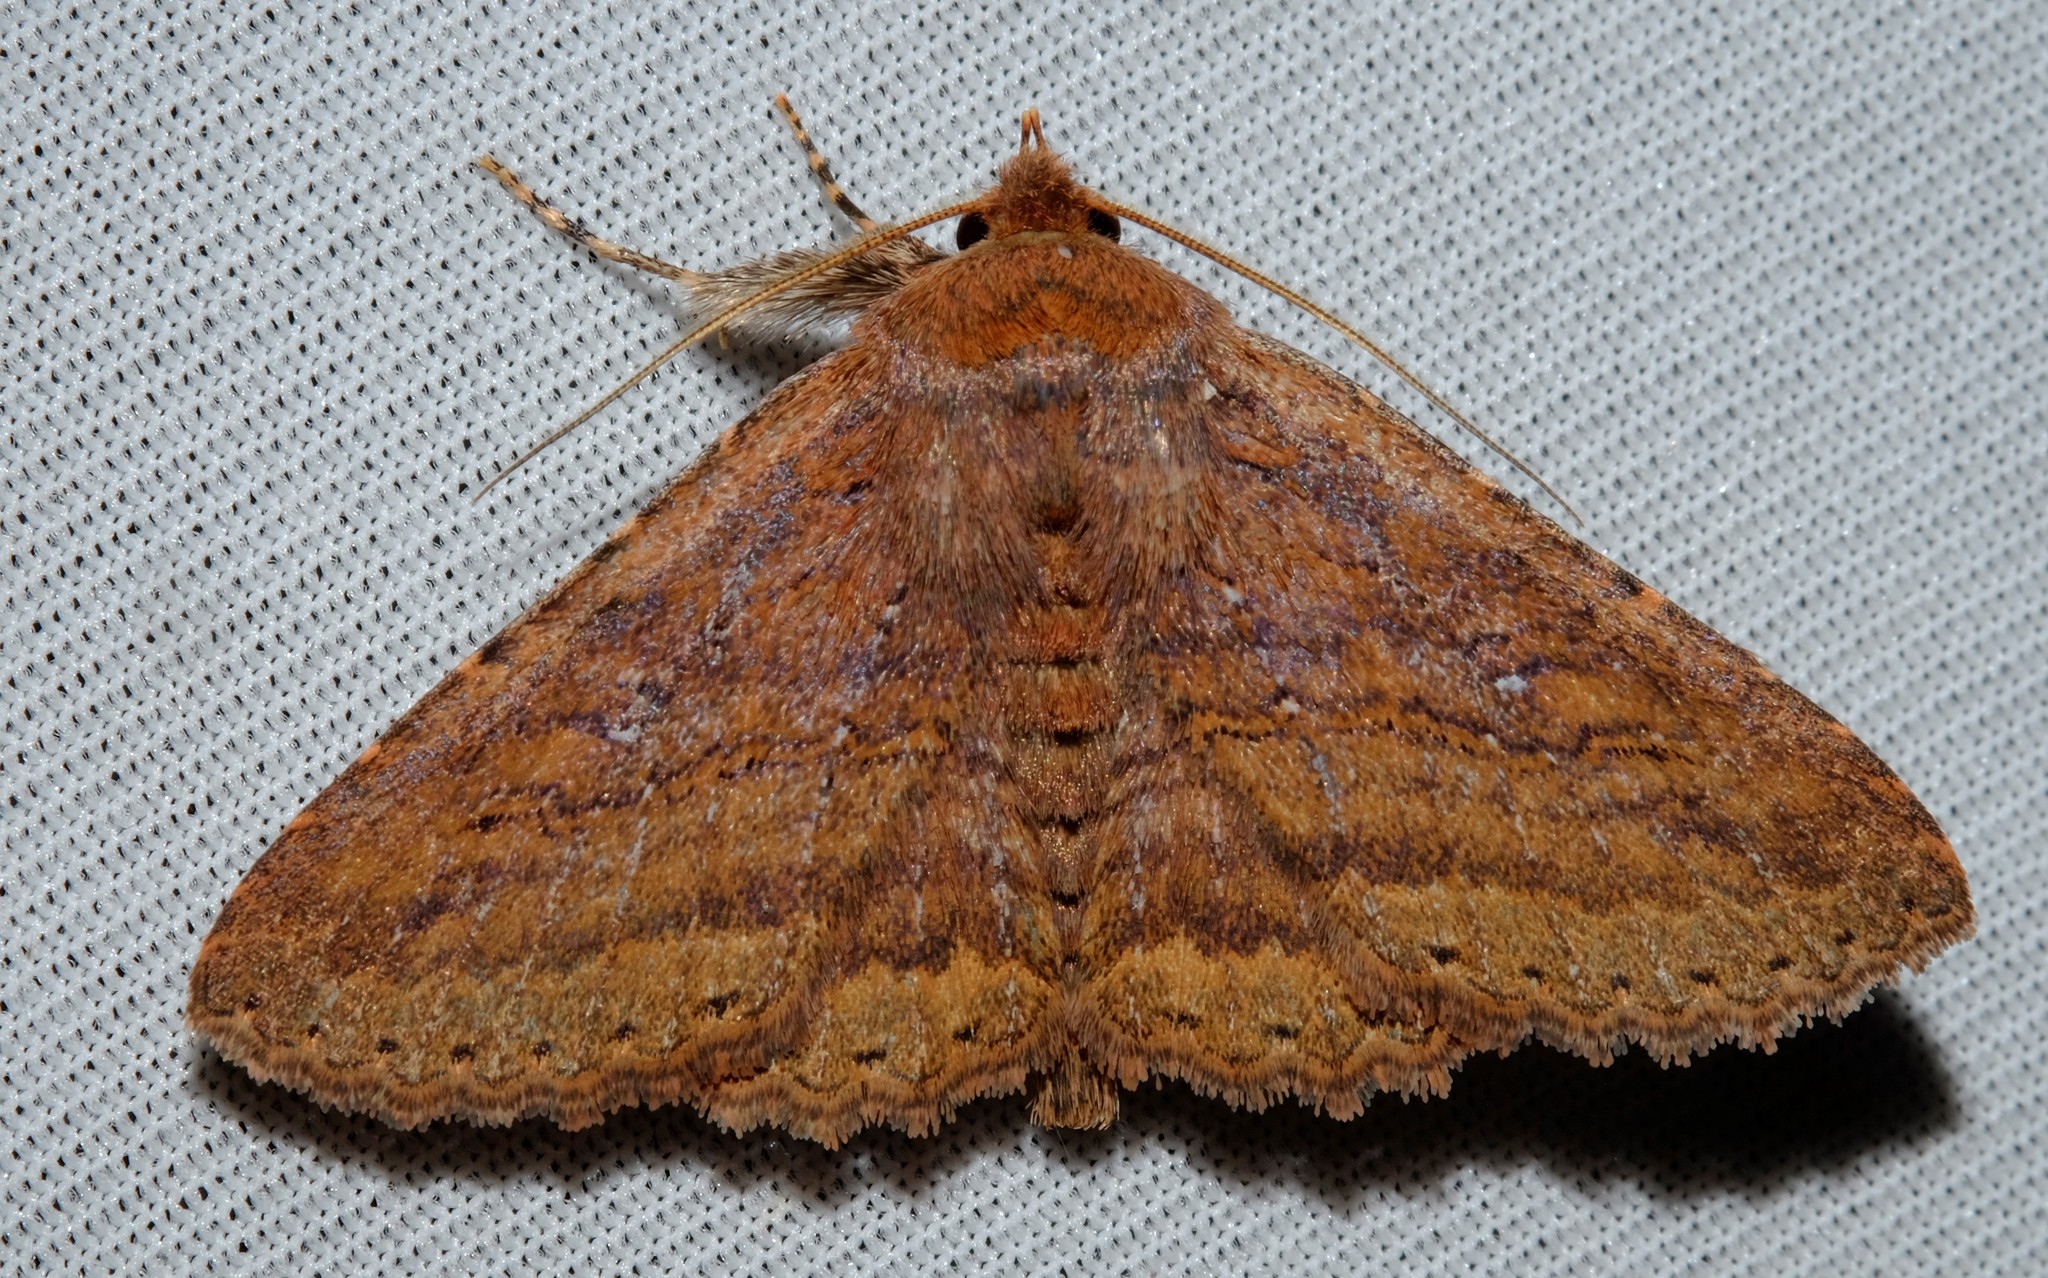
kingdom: Animalia
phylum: Arthropoda
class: Insecta
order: Lepidoptera
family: Erebidae
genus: Praxis
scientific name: Praxis porphyretica
